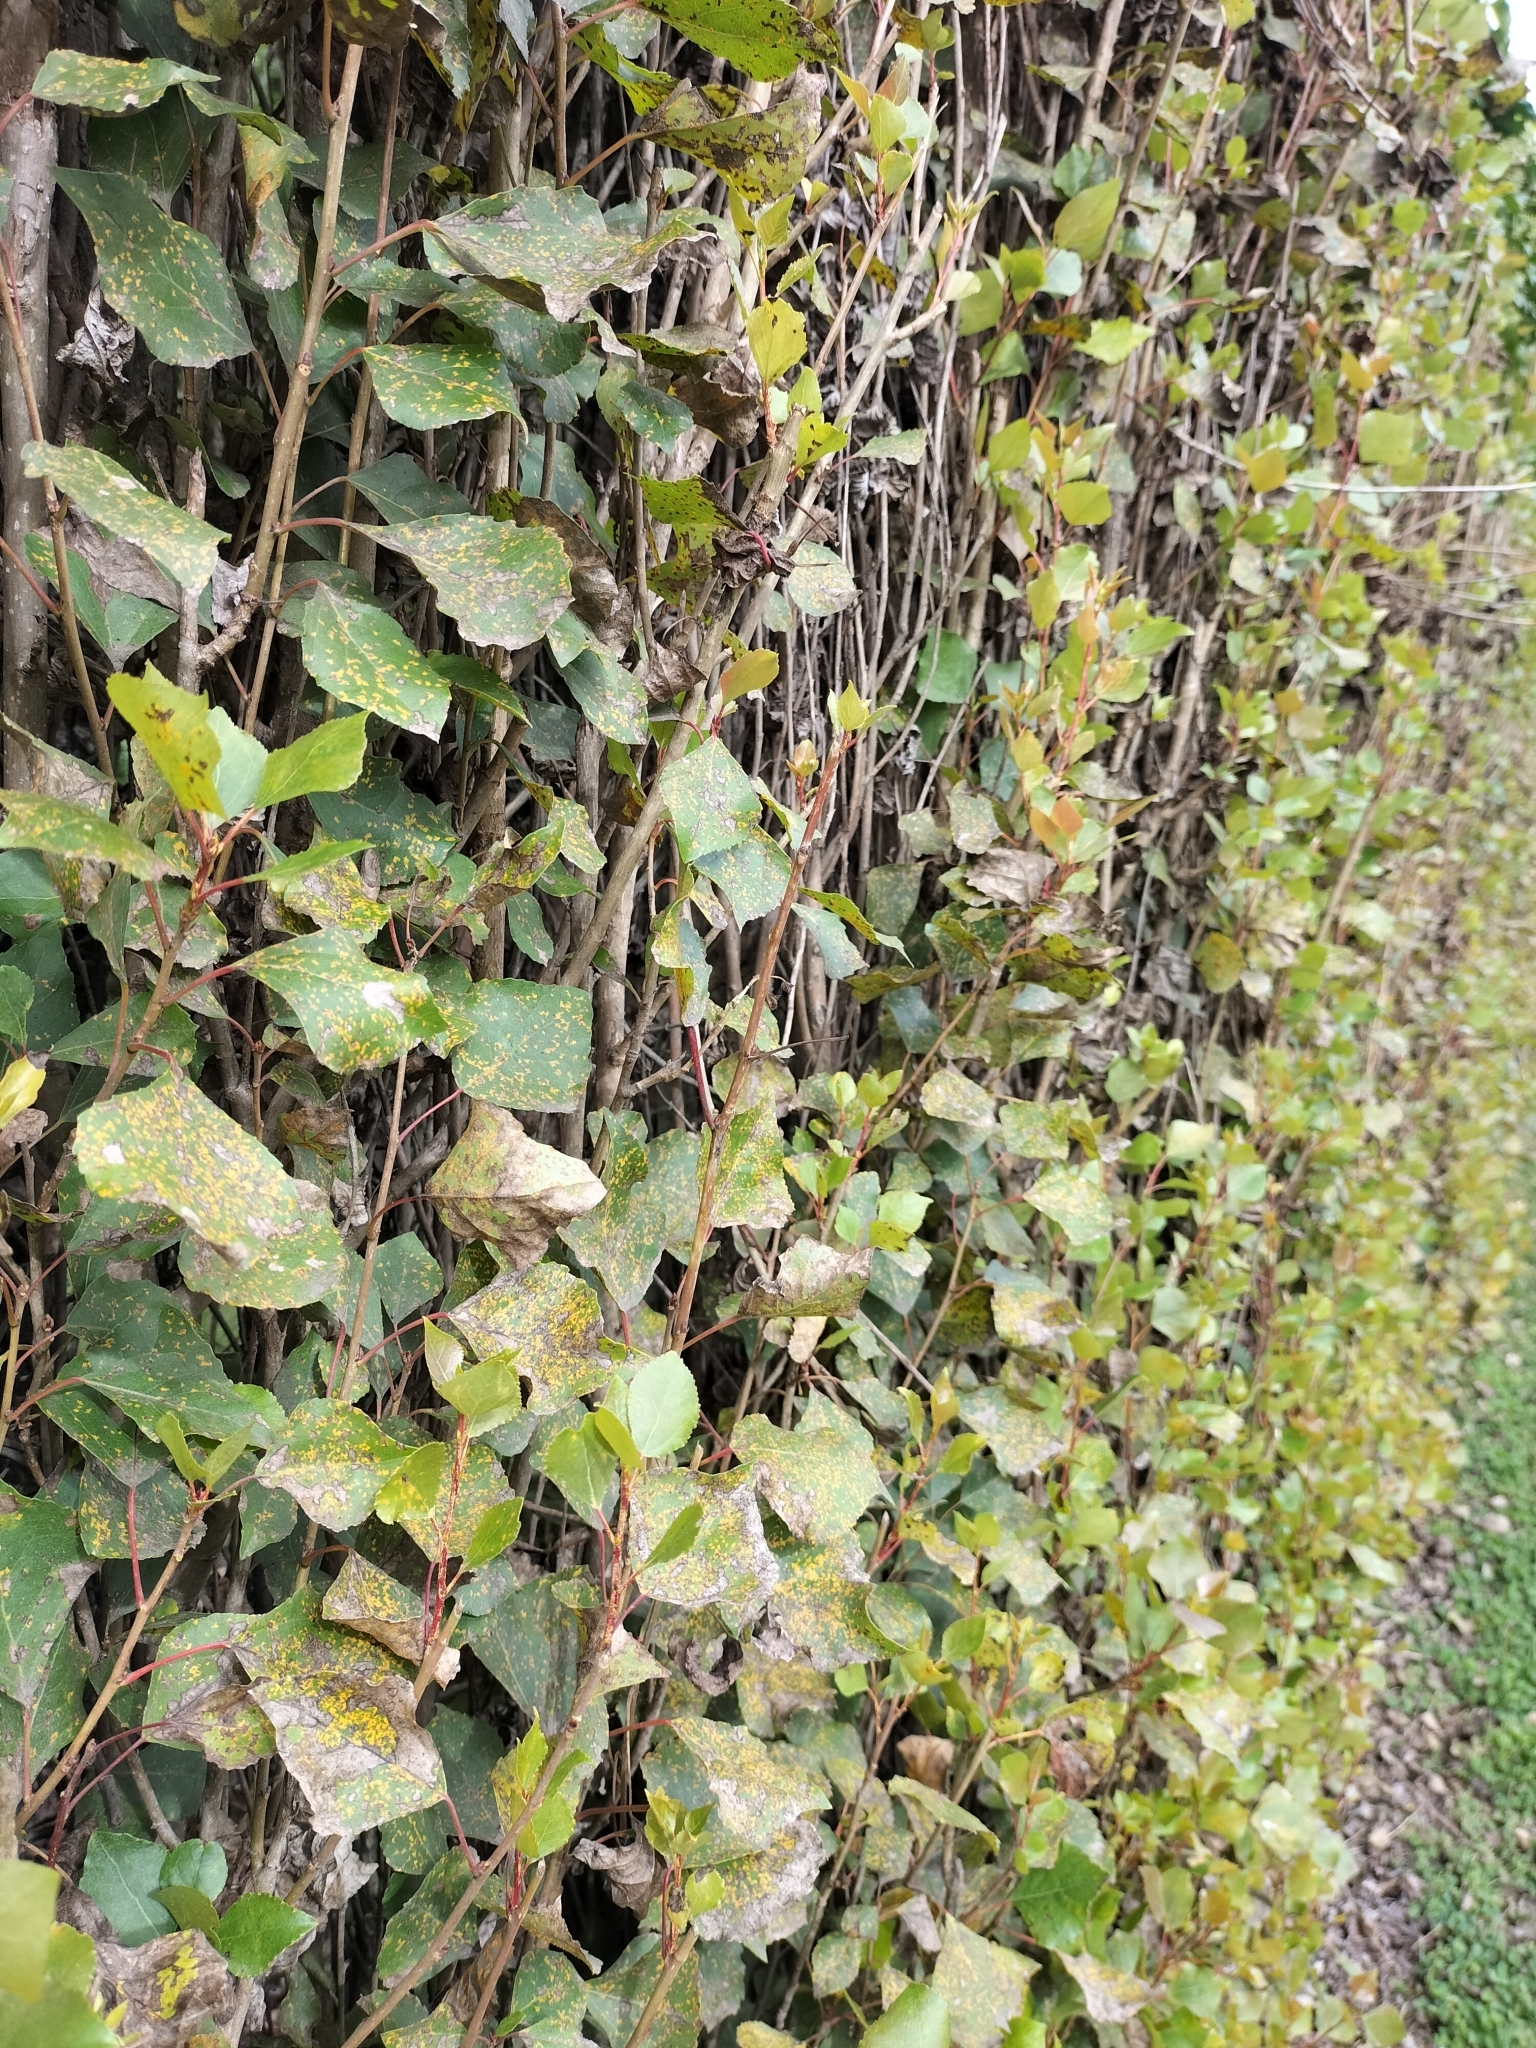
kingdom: Plantae
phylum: Tracheophyta
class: Magnoliopsida
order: Malpighiales
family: Salicaceae
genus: Populus
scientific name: Populus nigra
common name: Black poplar
